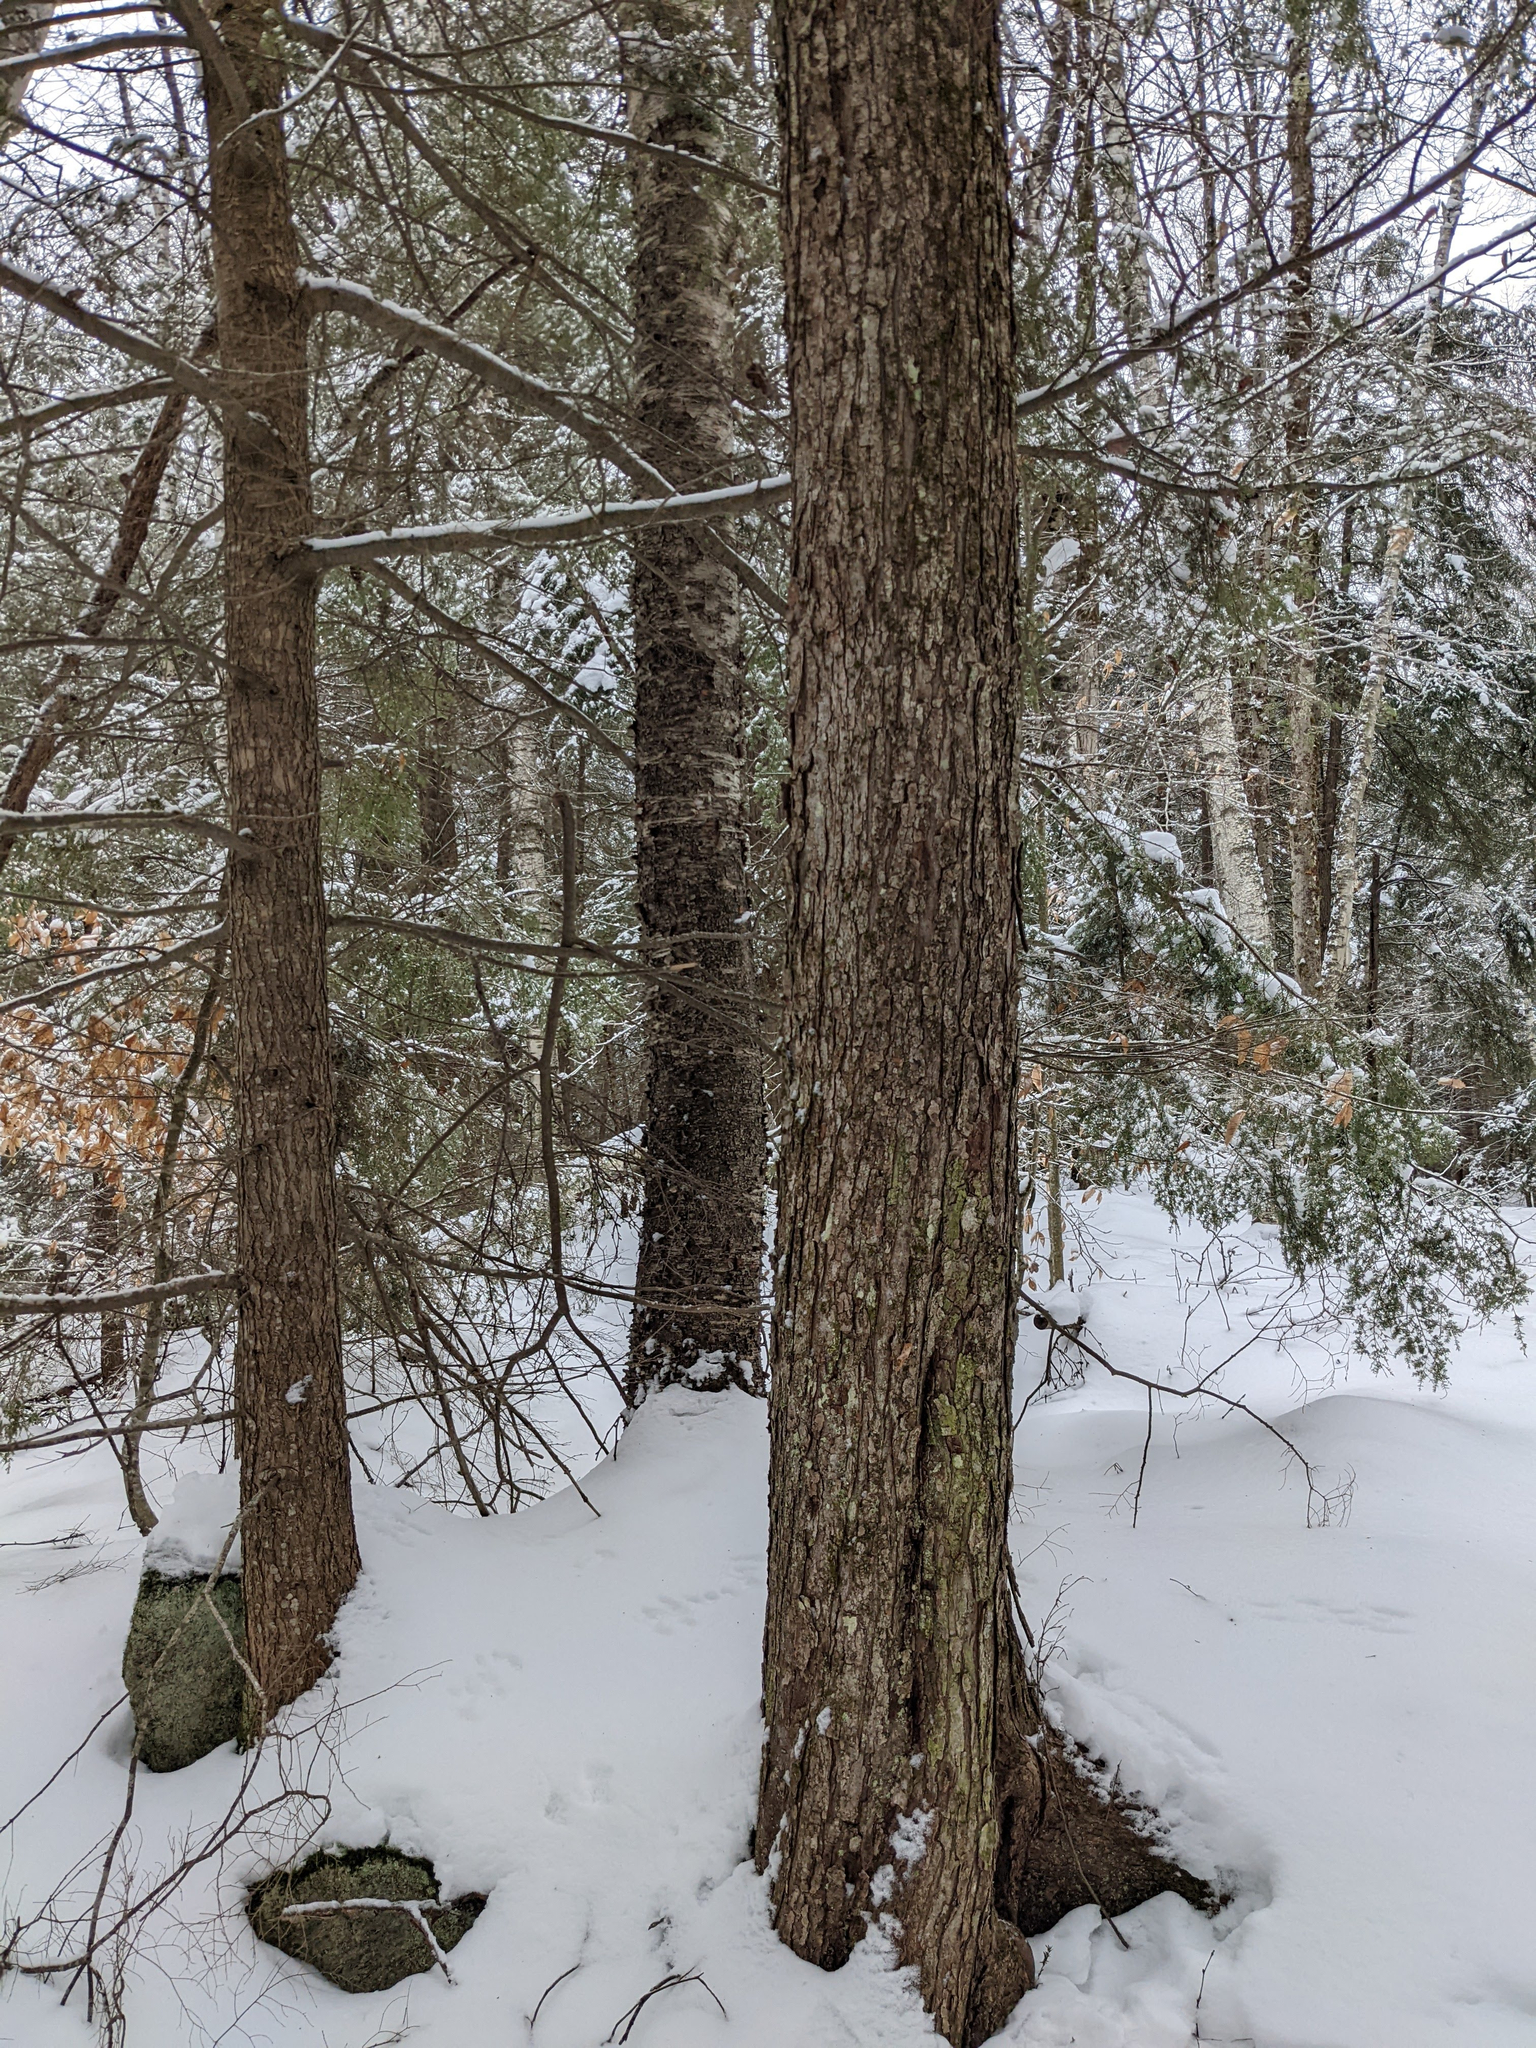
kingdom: Plantae
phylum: Tracheophyta
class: Pinopsida
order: Pinales
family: Pinaceae
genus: Tsuga
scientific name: Tsuga canadensis
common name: Eastern hemlock
